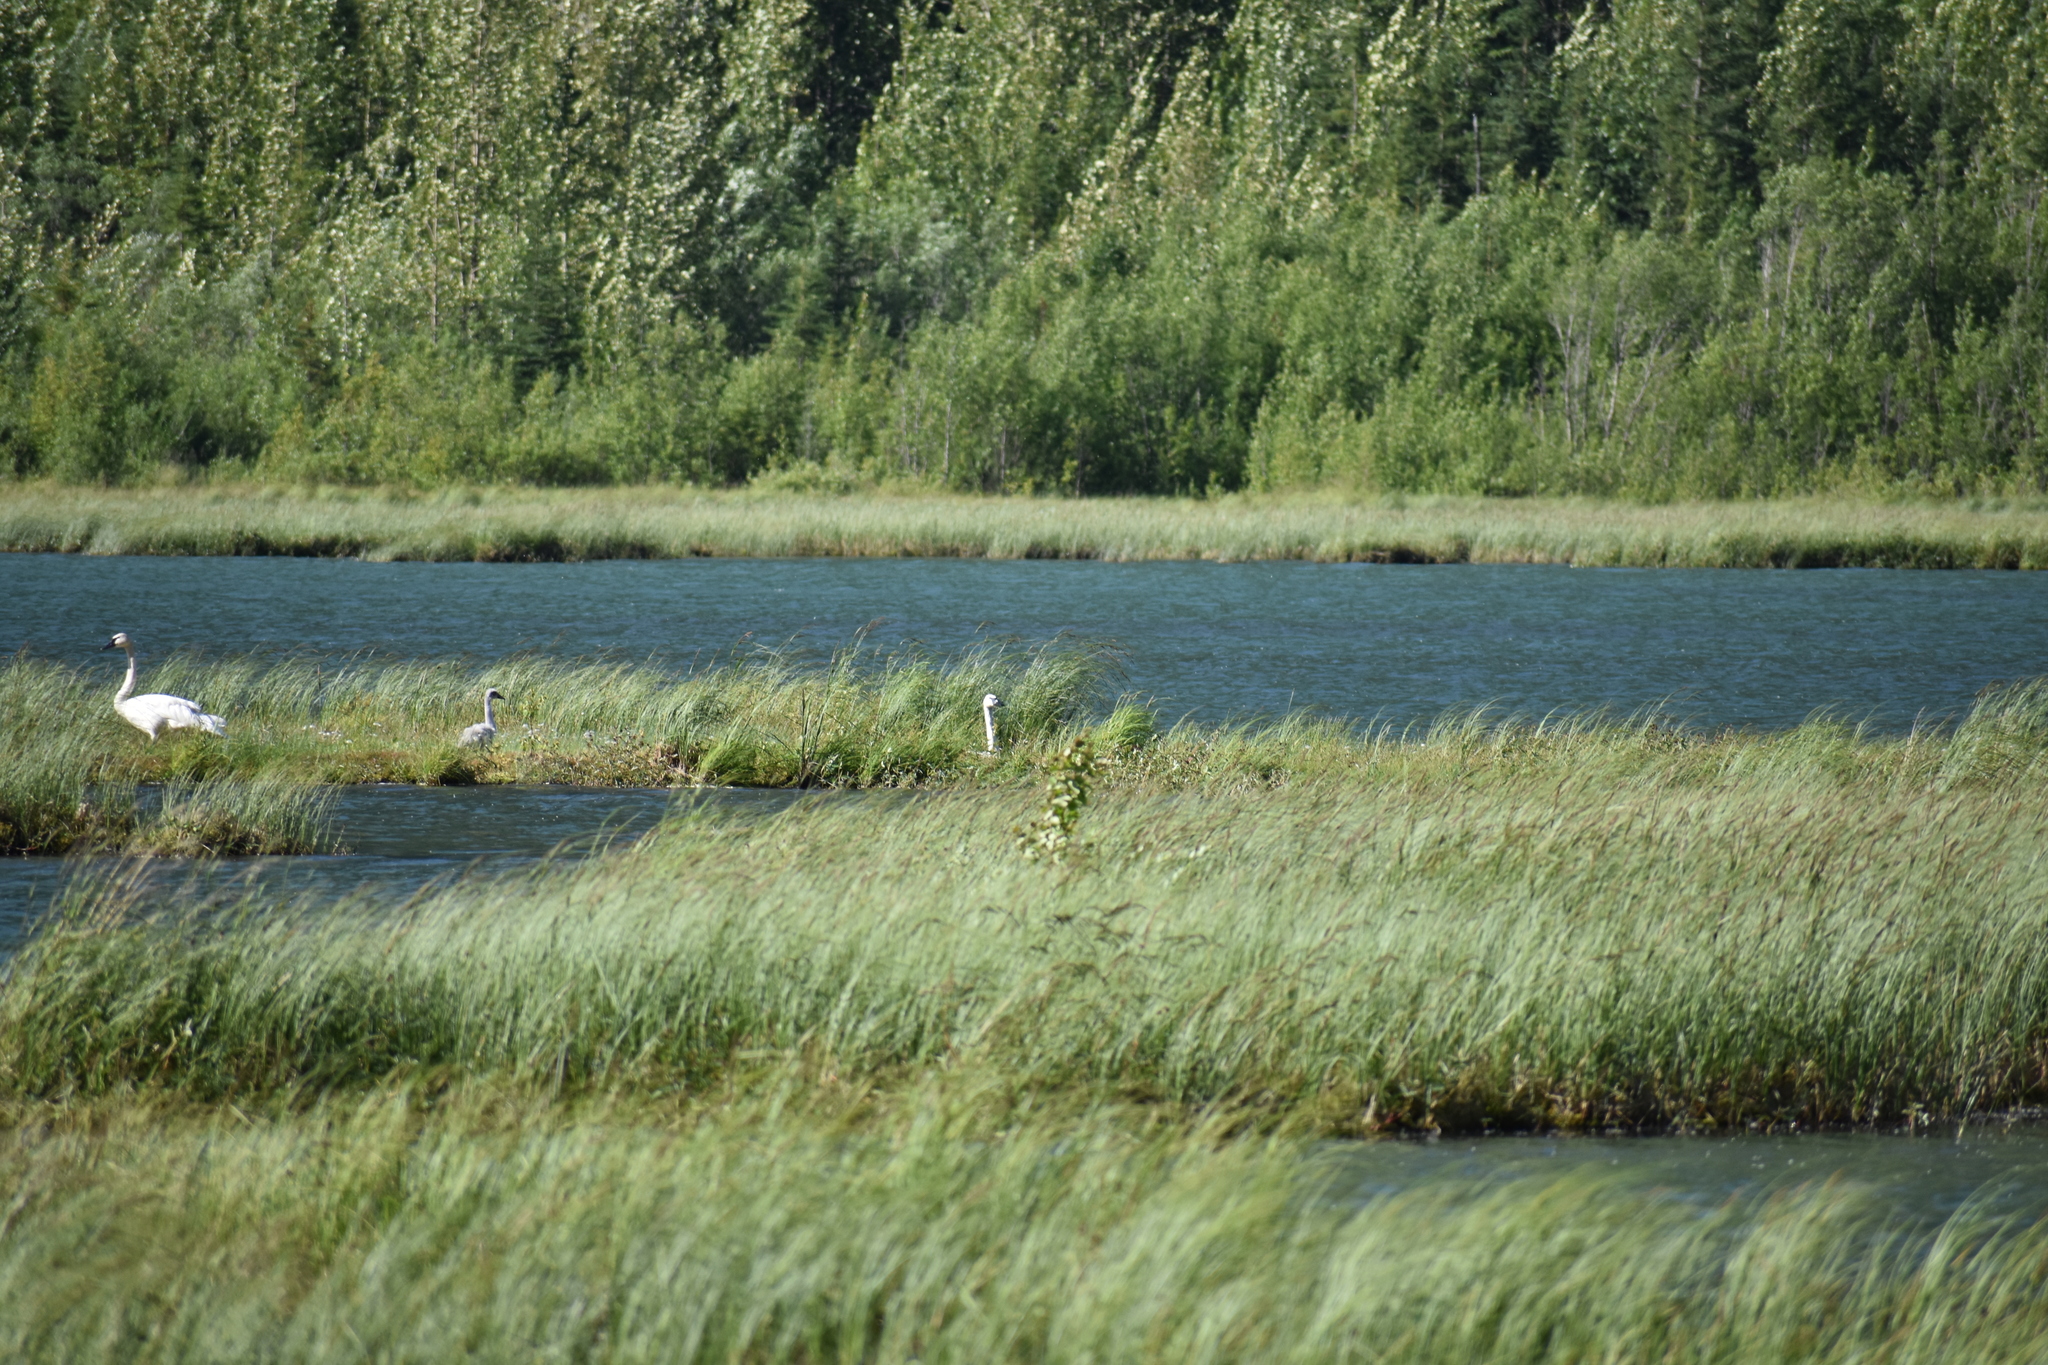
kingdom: Animalia
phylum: Chordata
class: Aves
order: Anseriformes
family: Anatidae
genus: Cygnus
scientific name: Cygnus buccinator
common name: Trumpeter swan
